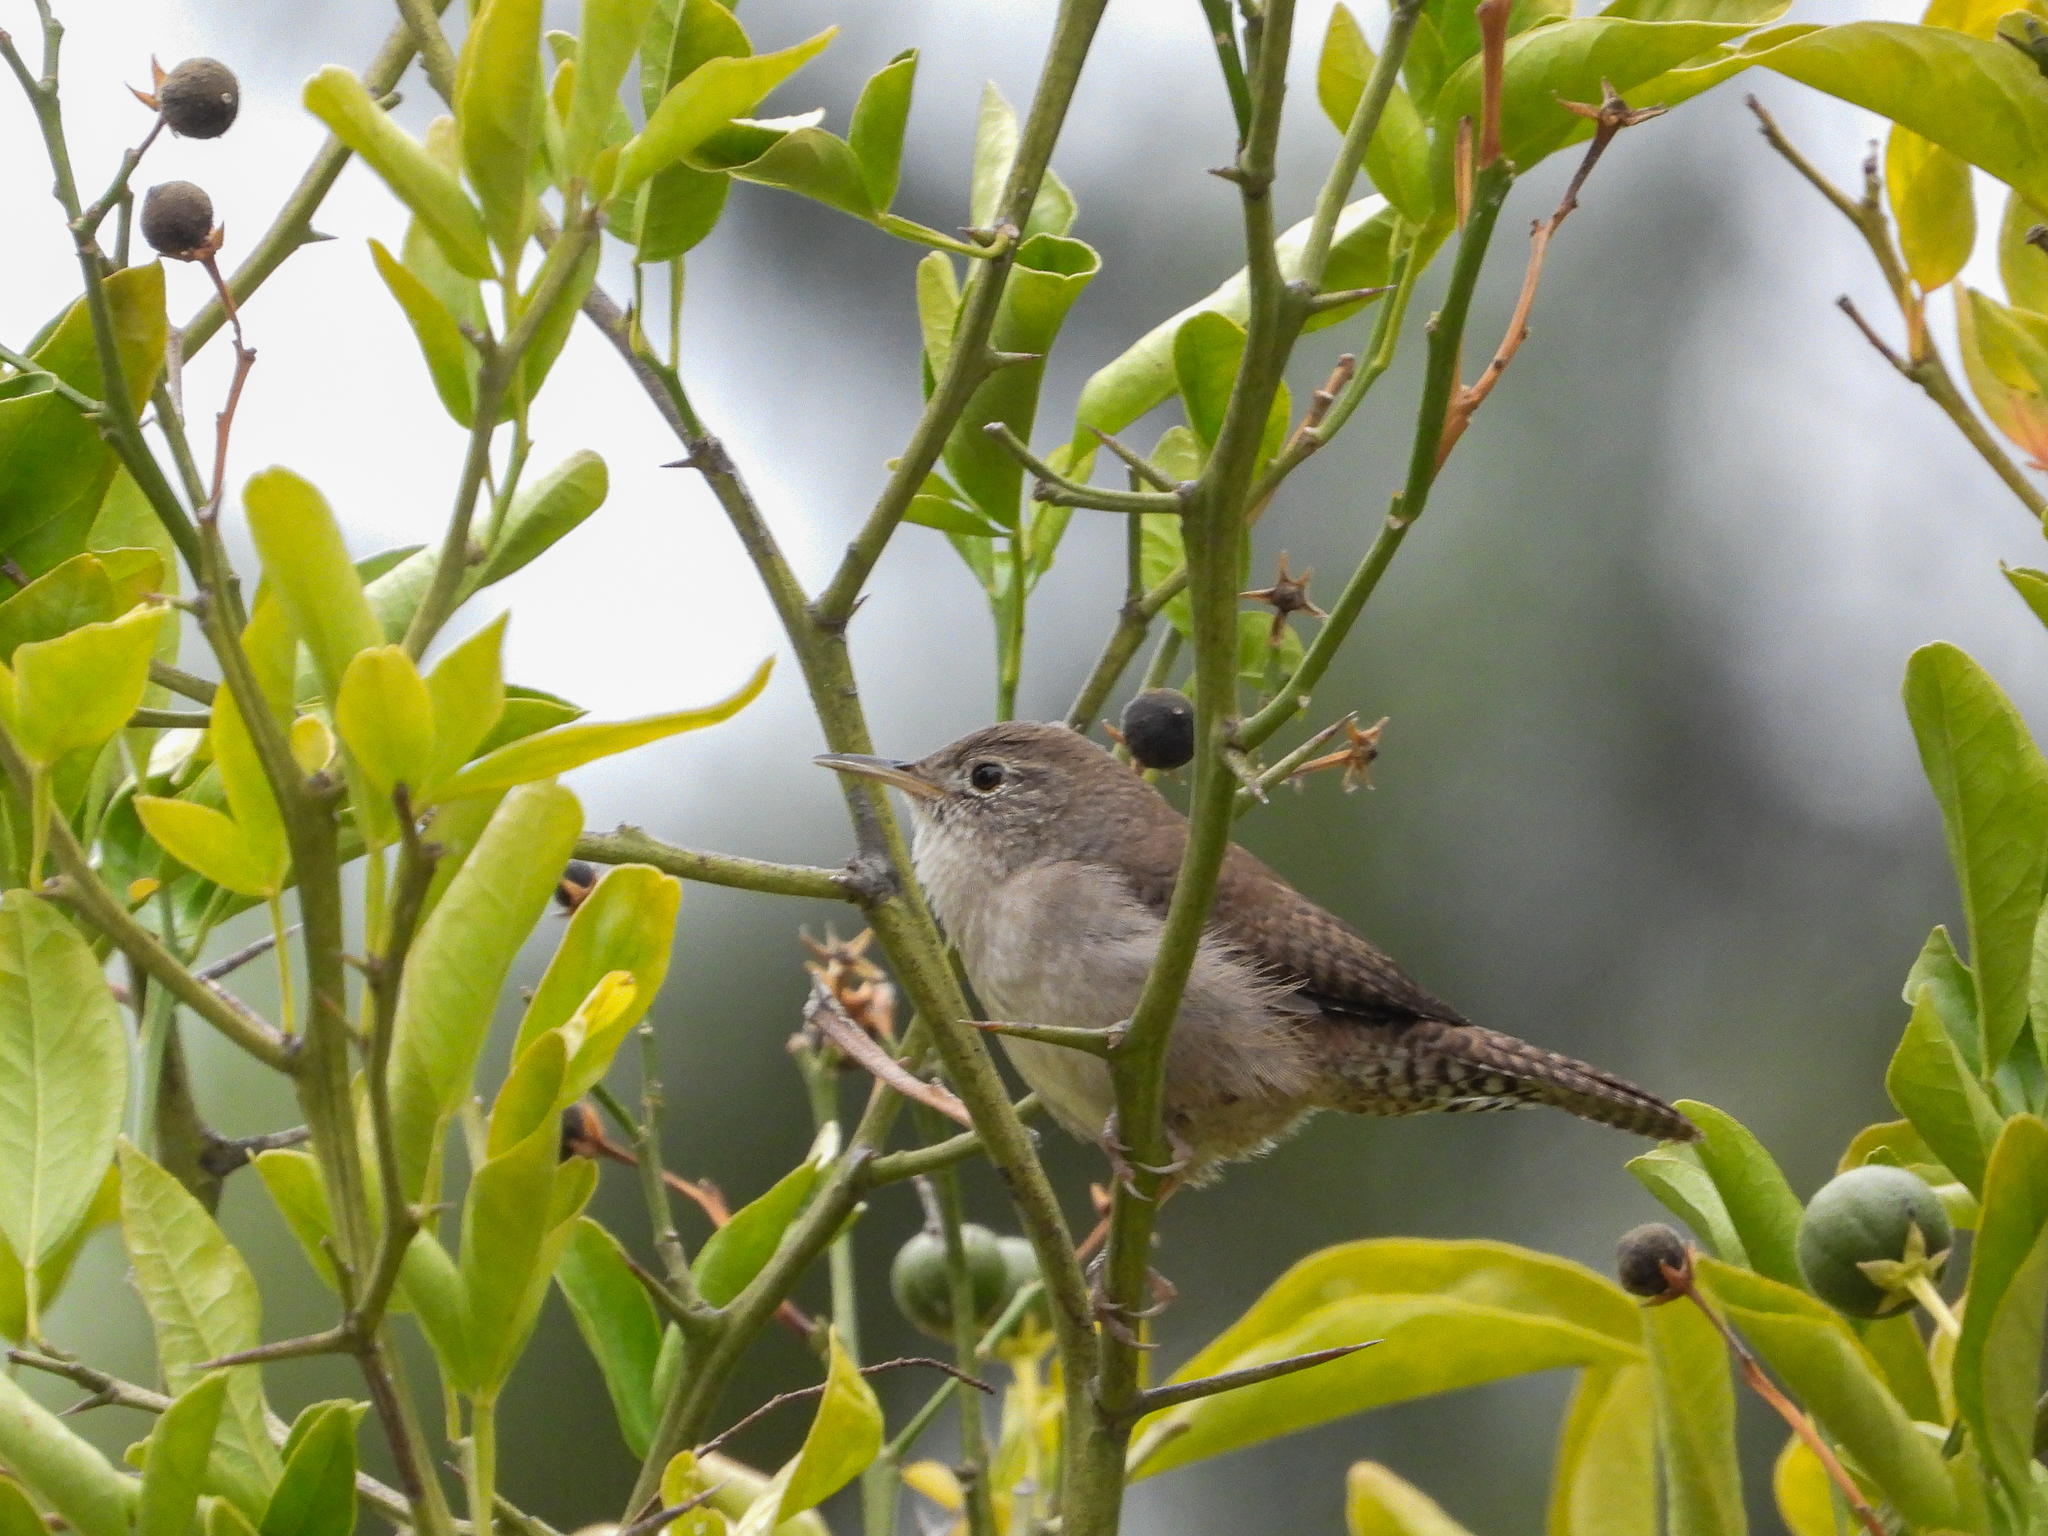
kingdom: Animalia
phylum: Chordata
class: Aves
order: Passeriformes
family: Troglodytidae
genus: Troglodytes
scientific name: Troglodytes aedon
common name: House wren
